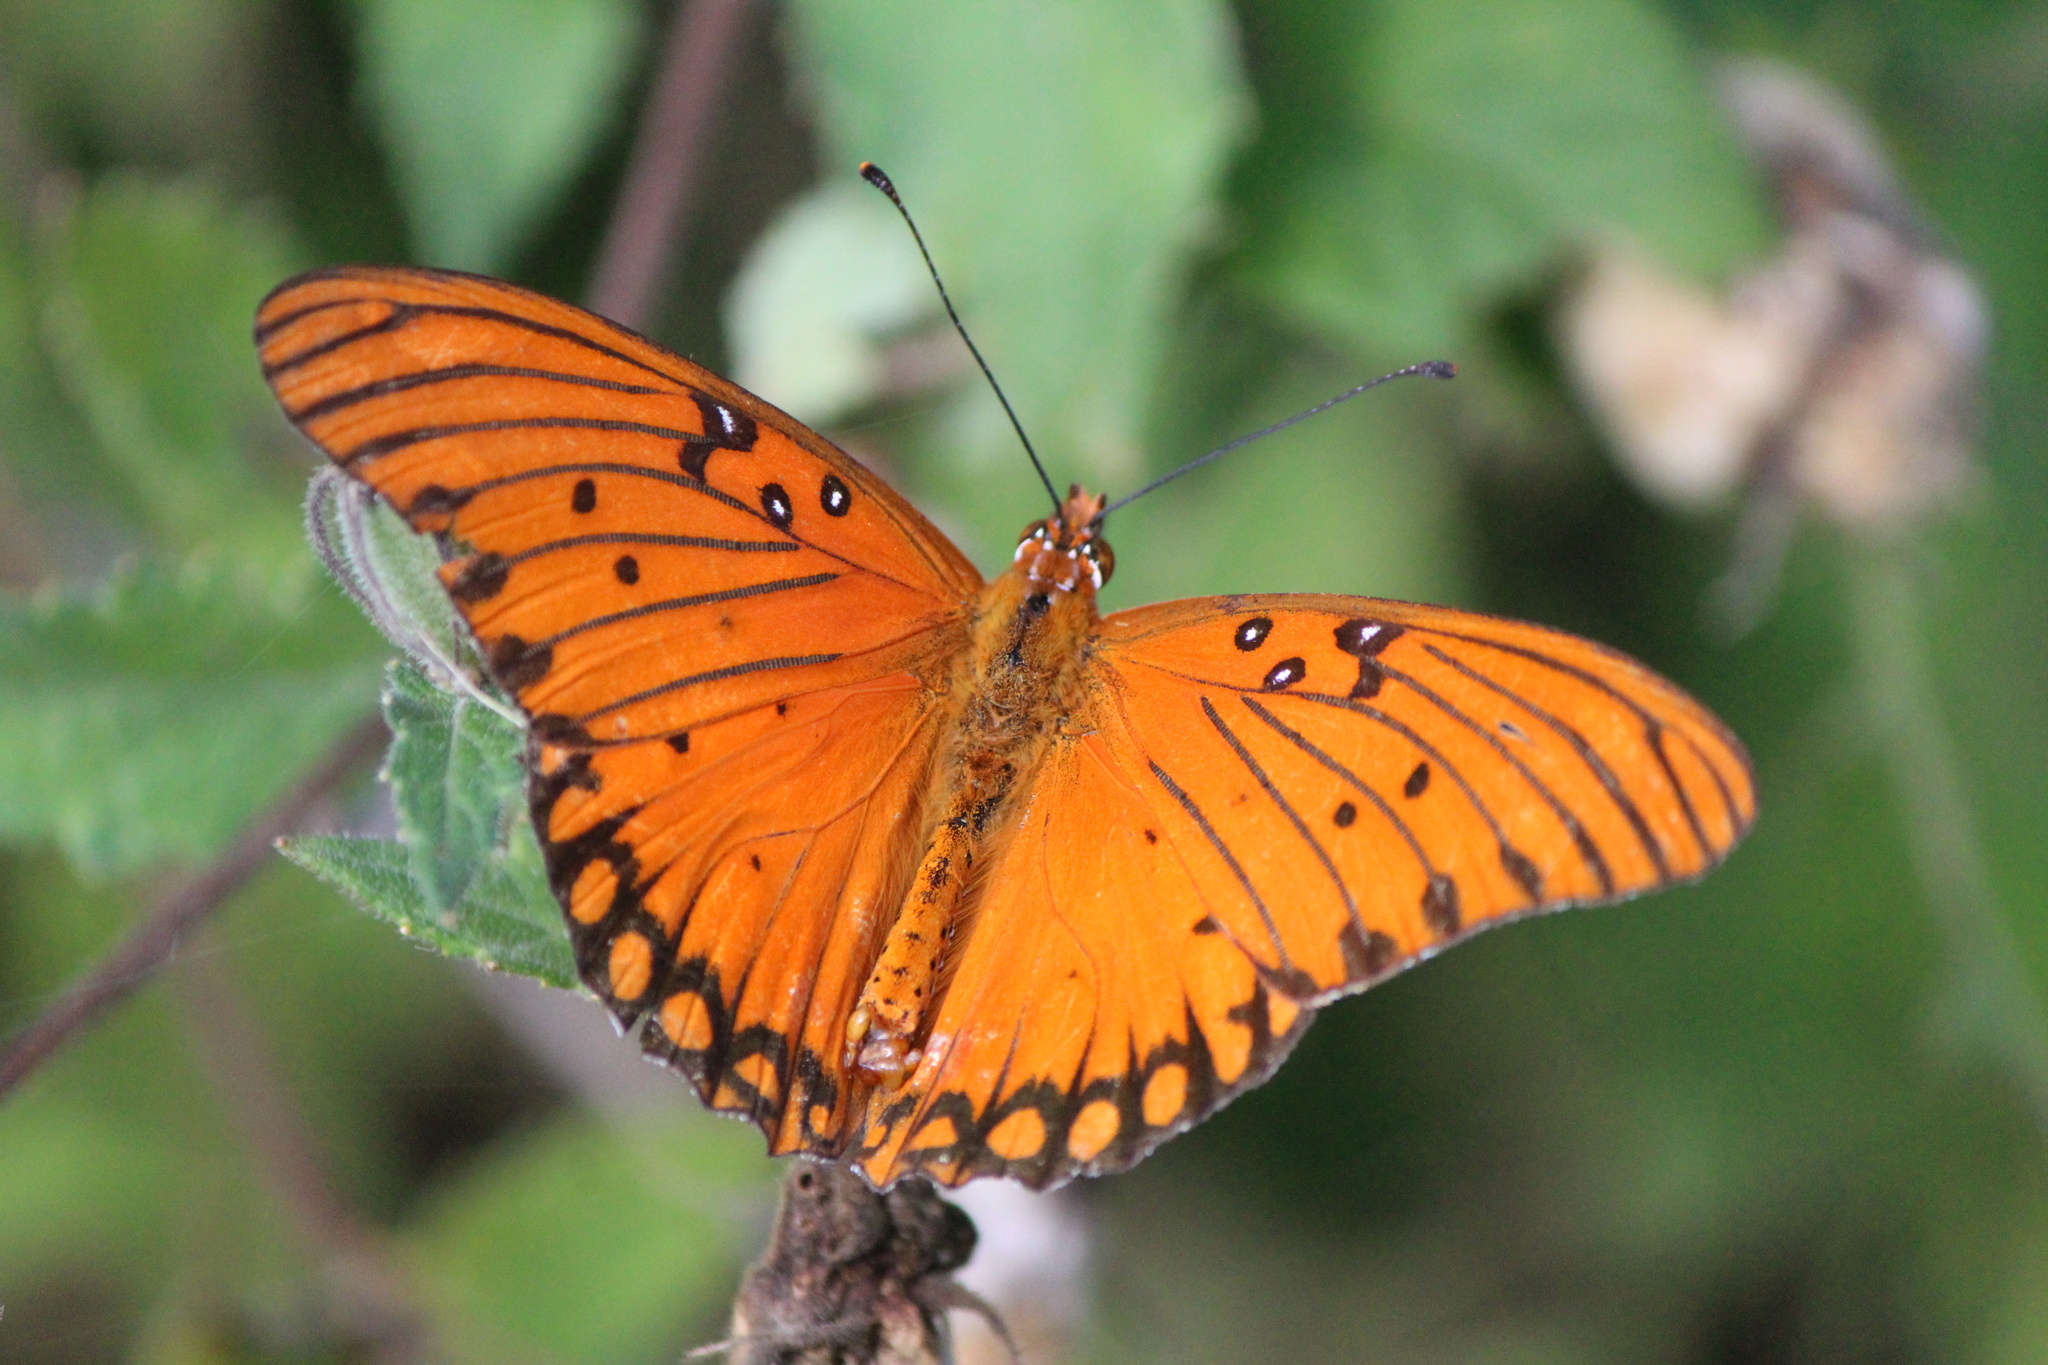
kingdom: Animalia
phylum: Arthropoda
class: Insecta
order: Lepidoptera
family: Nymphalidae
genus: Dione
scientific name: Dione vanillae
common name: Gulf fritillary
